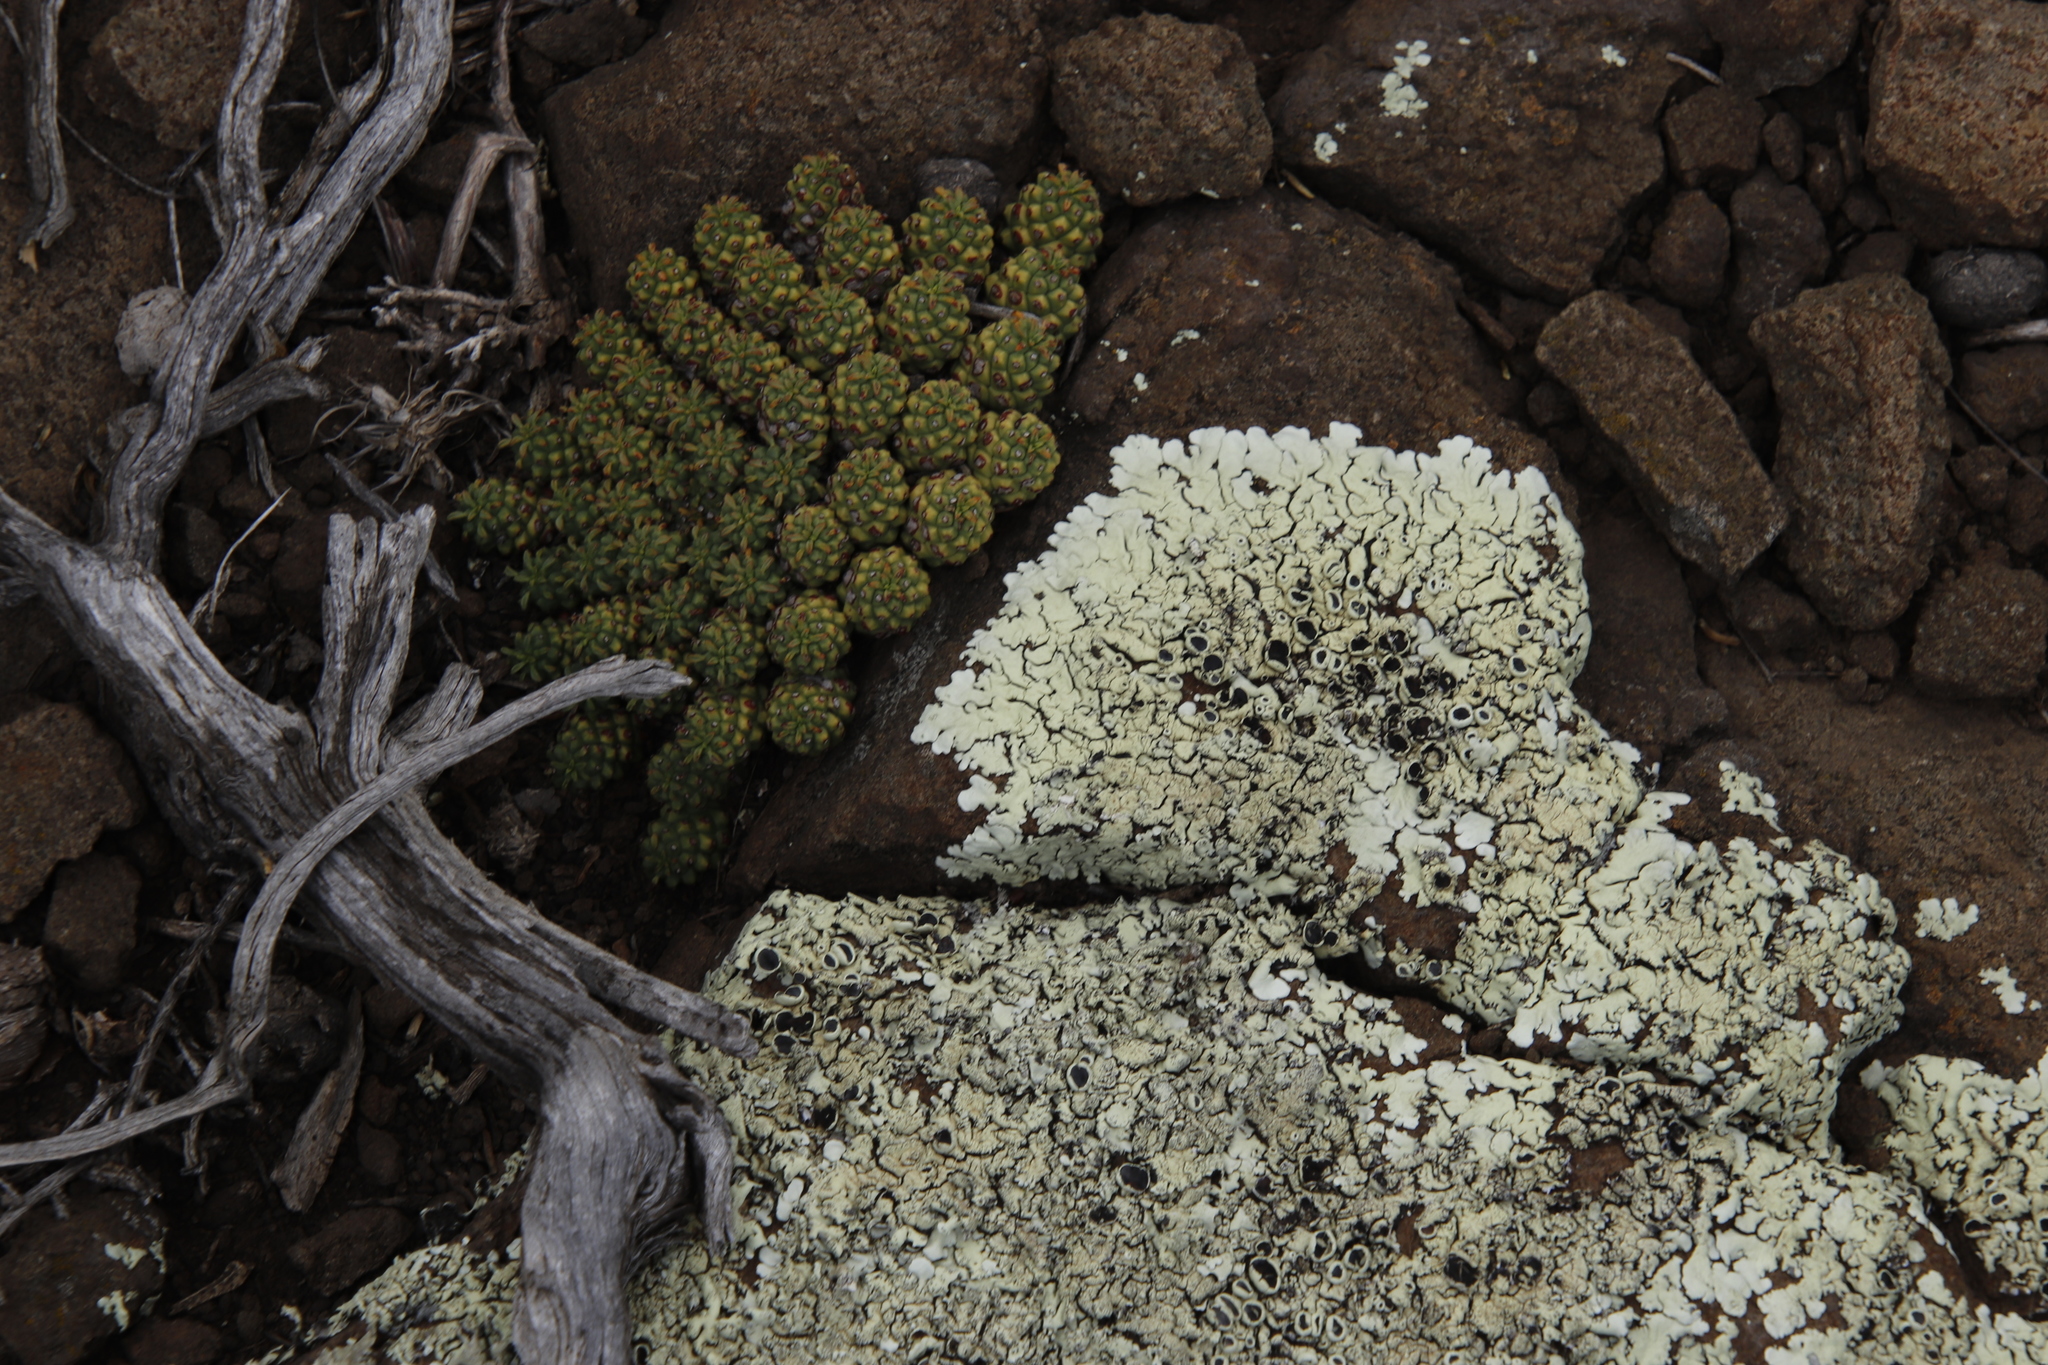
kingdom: Plantae
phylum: Tracheophyta
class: Magnoliopsida
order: Malpighiales
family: Euphorbiaceae
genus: Euphorbia
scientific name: Euphorbia clavarioides
